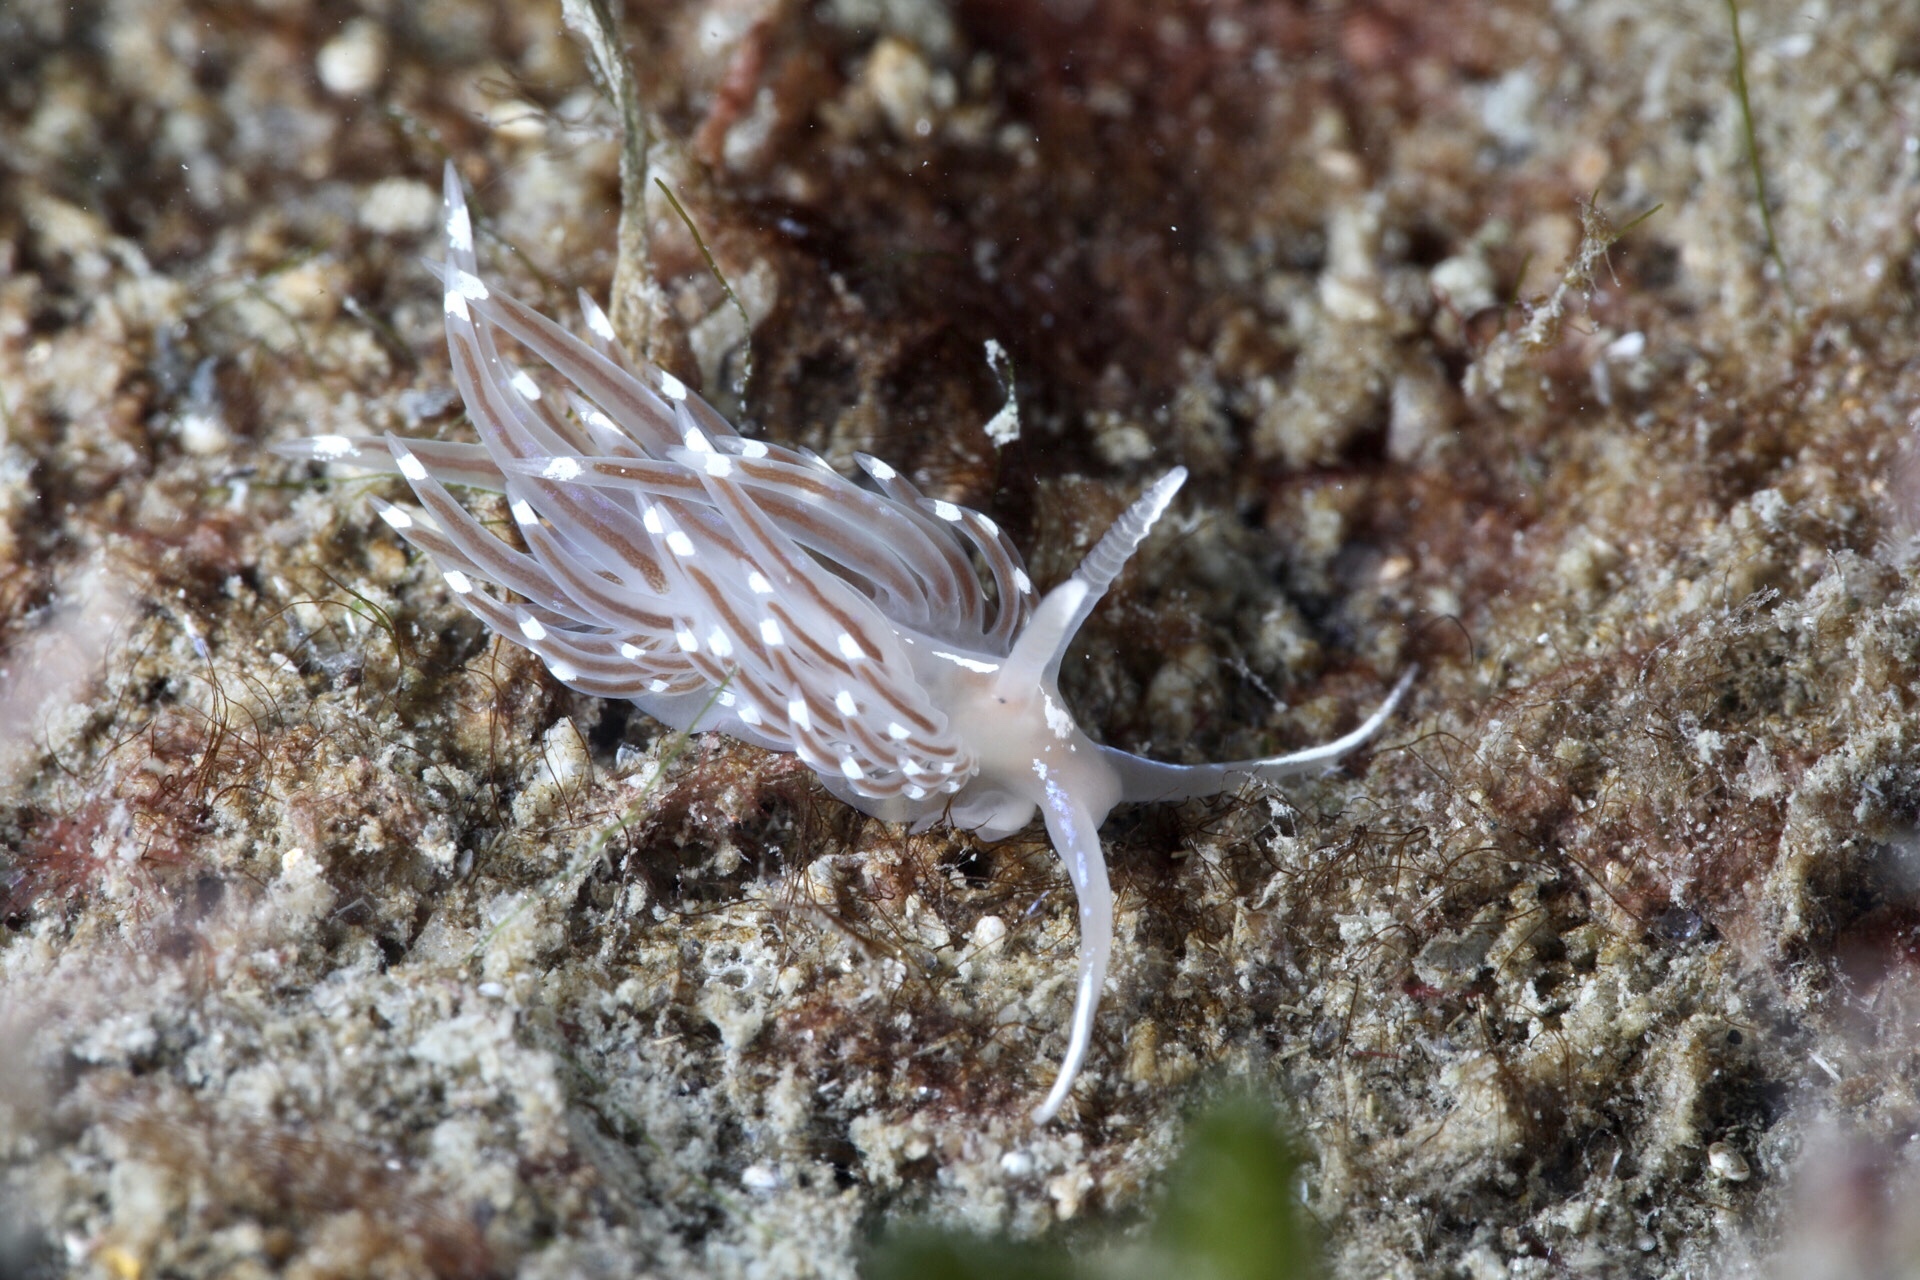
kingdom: Animalia
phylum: Mollusca
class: Gastropoda
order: Nudibranchia
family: Facelinidae
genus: Facelina
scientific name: Facelina bostoniensis
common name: Boston facelina
